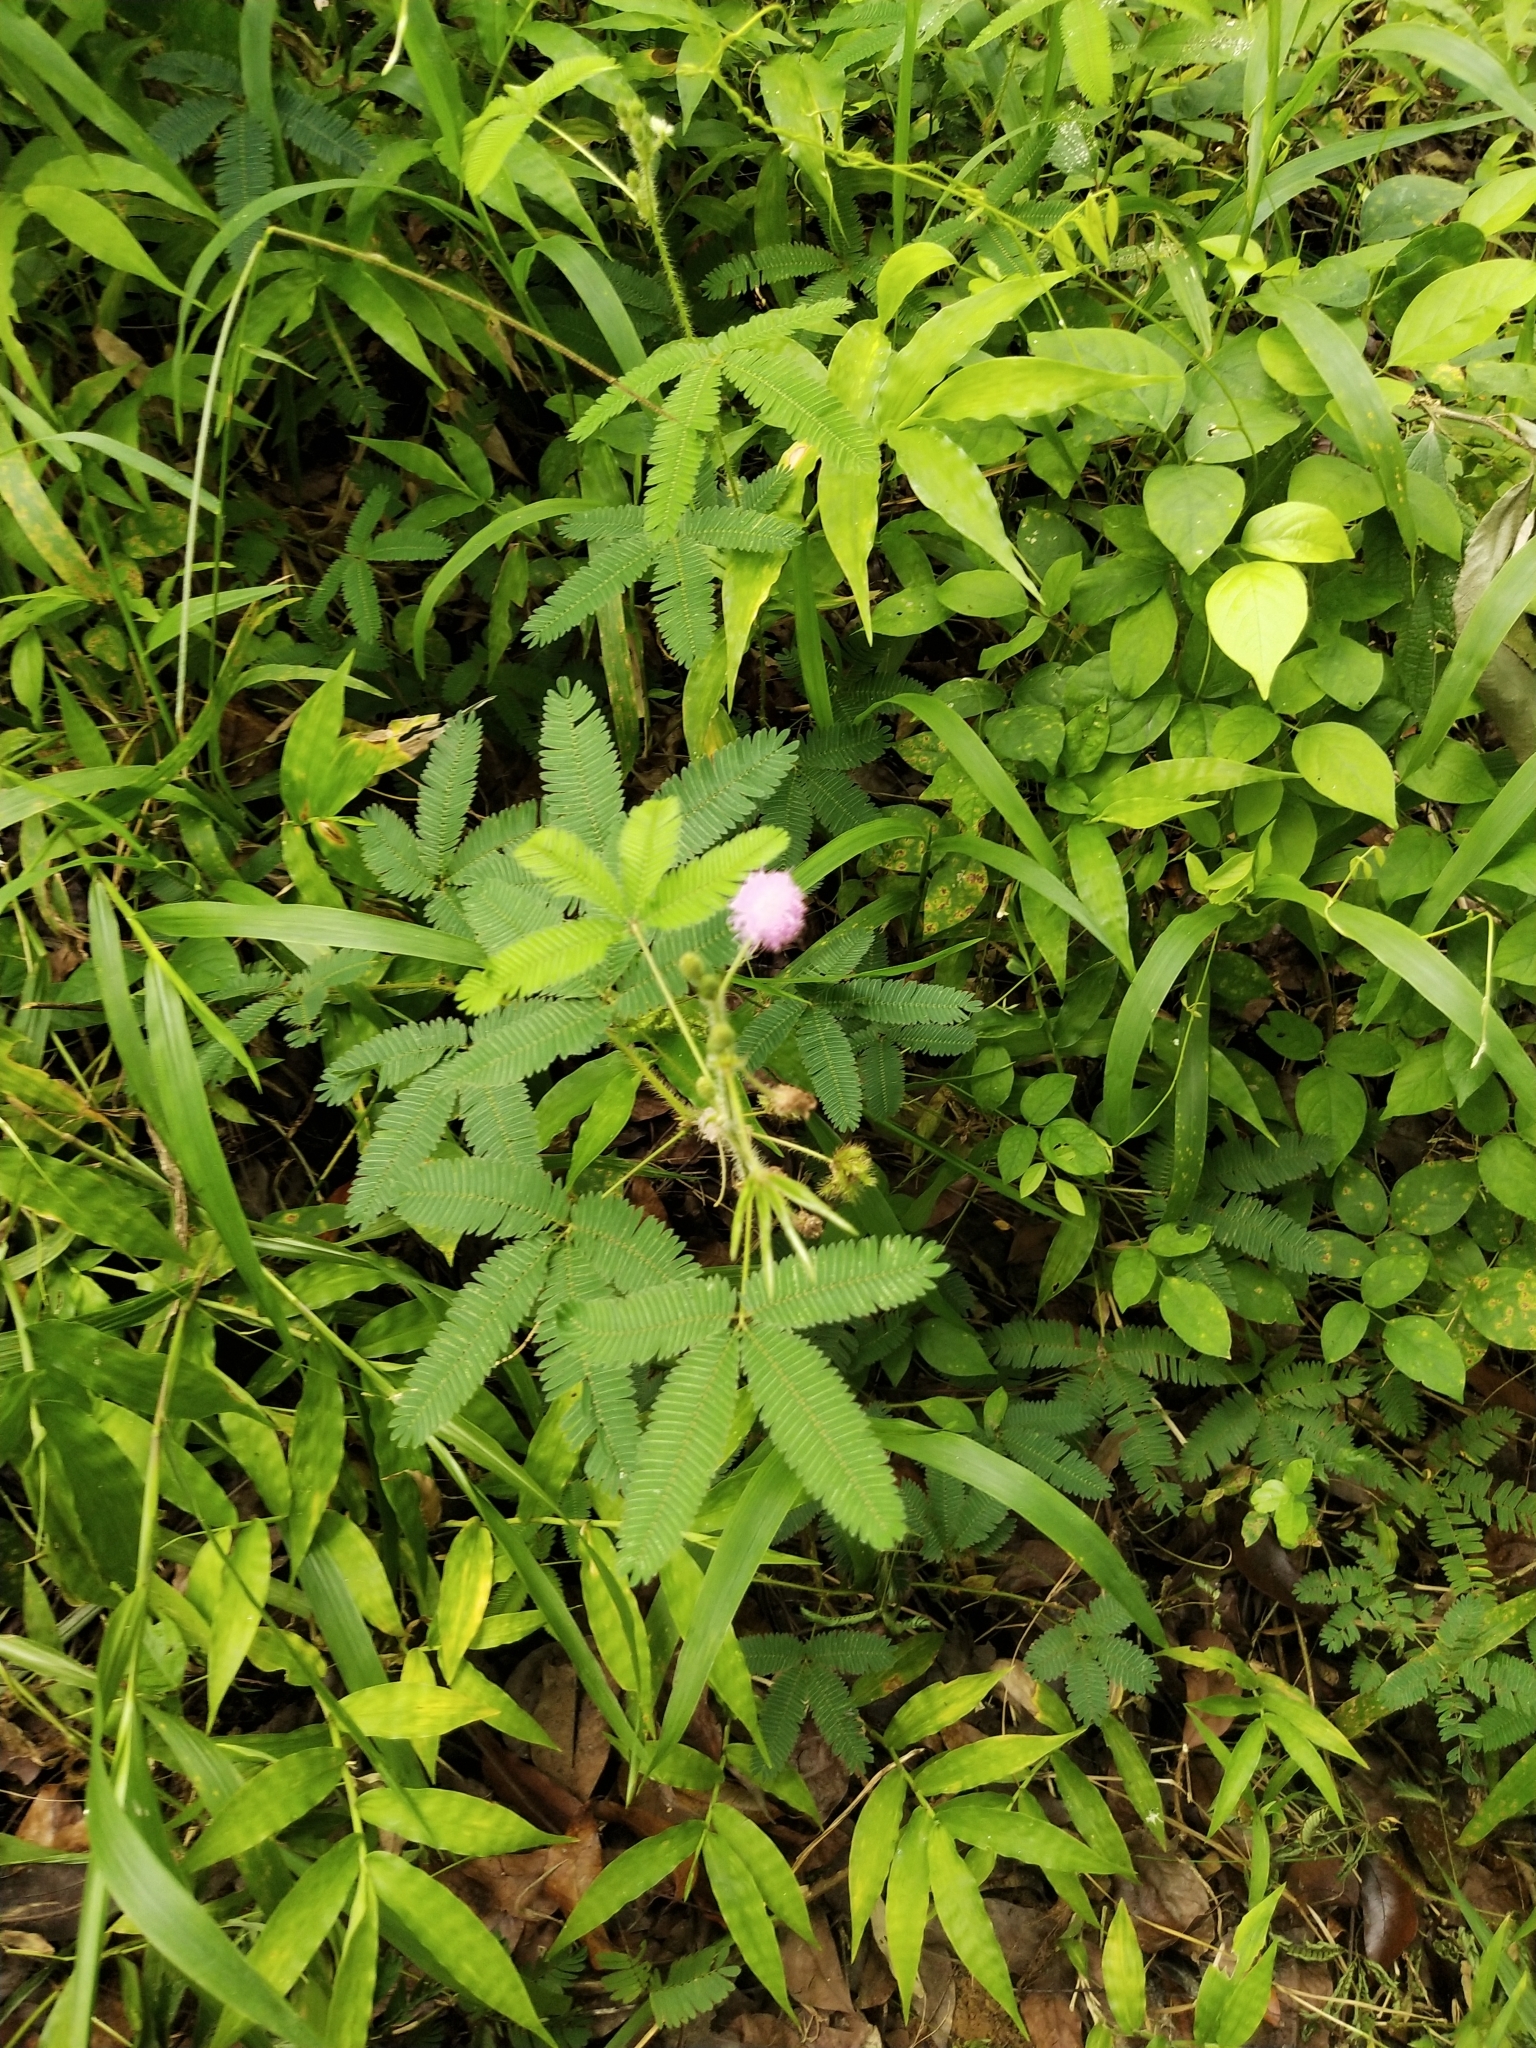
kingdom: Plantae
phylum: Tracheophyta
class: Magnoliopsida
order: Fabales
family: Fabaceae
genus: Mimosa
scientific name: Mimosa pudica
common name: Sensitive plant
